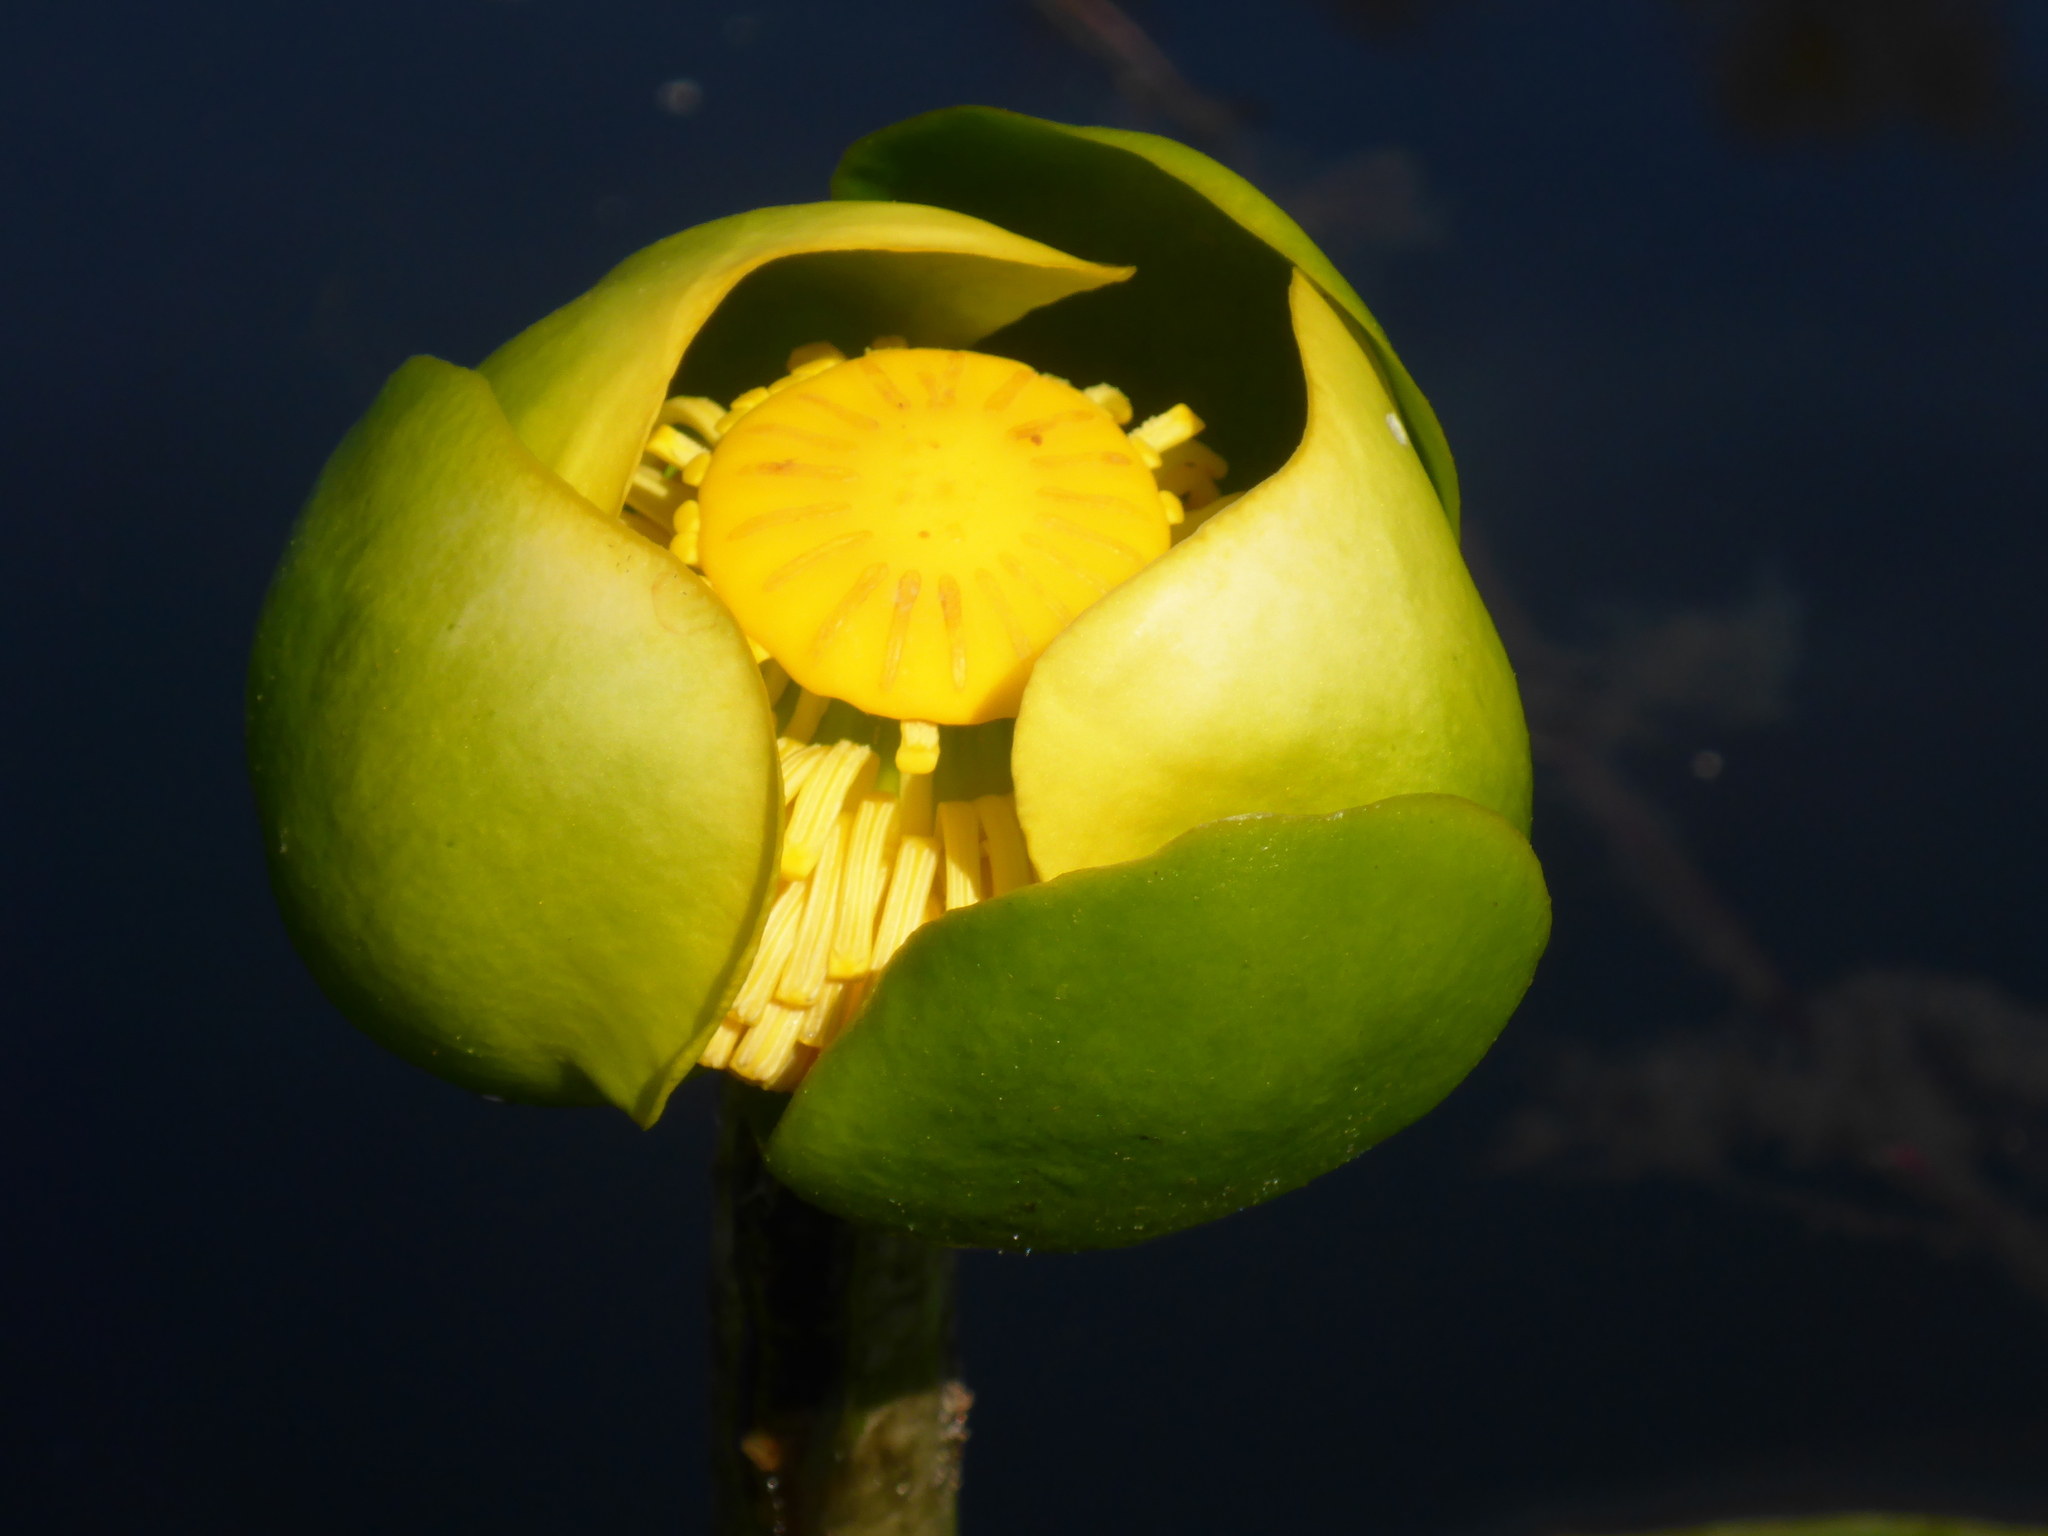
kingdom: Plantae
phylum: Tracheophyta
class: Magnoliopsida
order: Nymphaeales
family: Nymphaeaceae
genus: Nuphar
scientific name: Nuphar advena
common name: Spatter-dock
